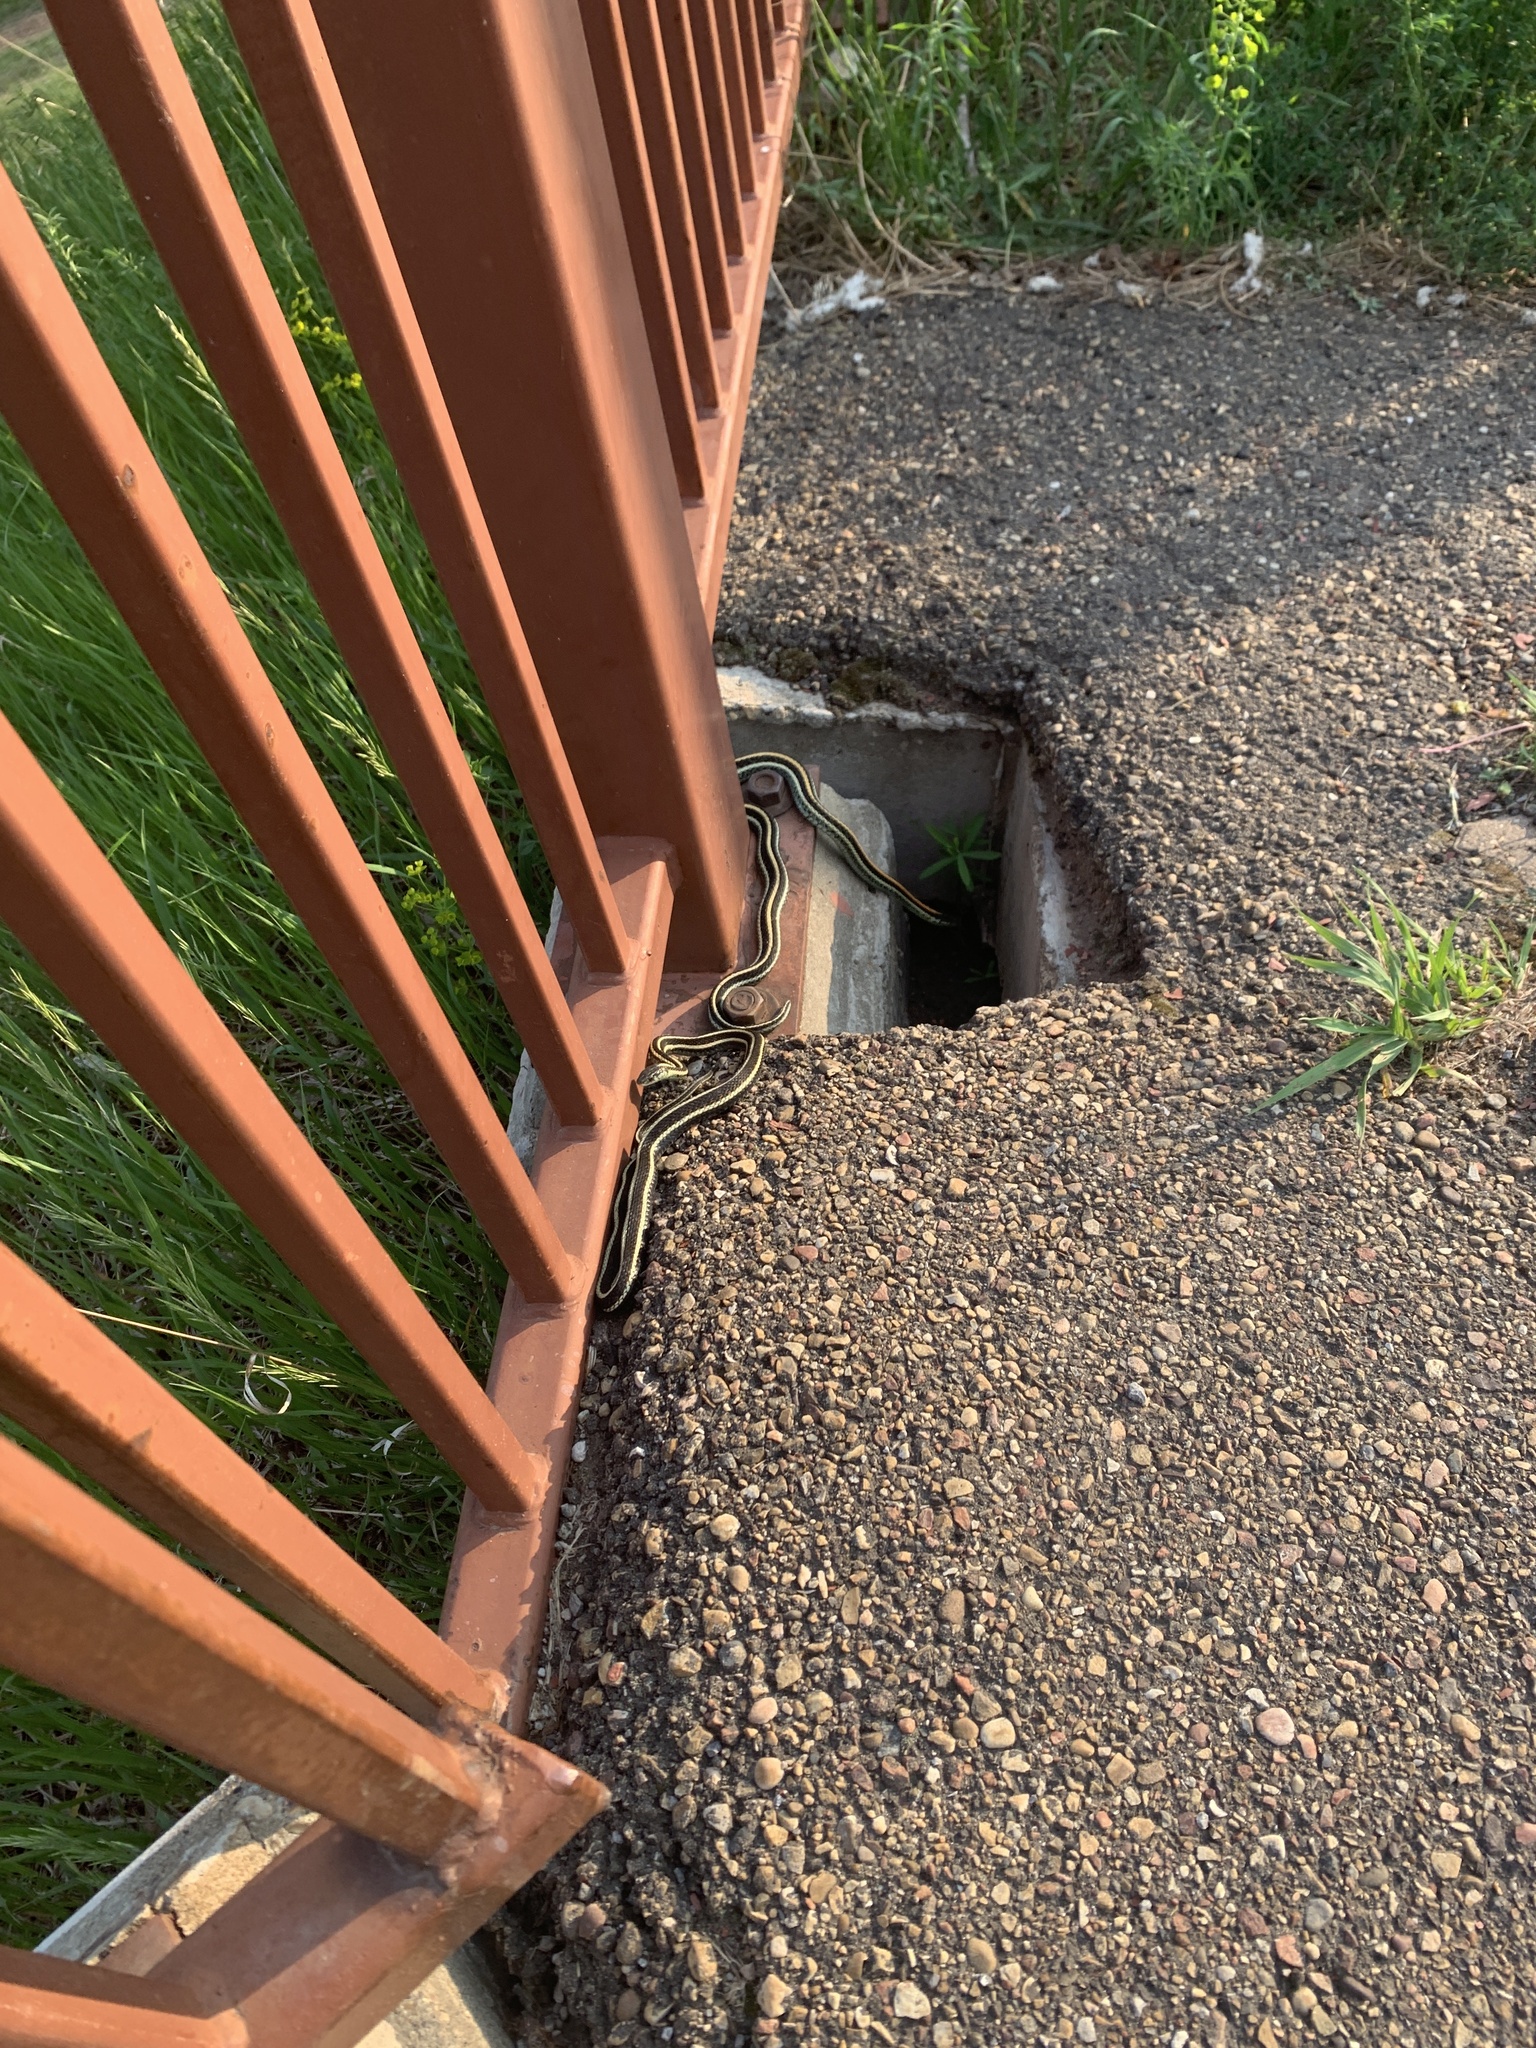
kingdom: Animalia
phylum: Chordata
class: Squamata
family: Colubridae
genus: Thamnophis
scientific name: Thamnophis sirtalis
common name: Common garter snake
